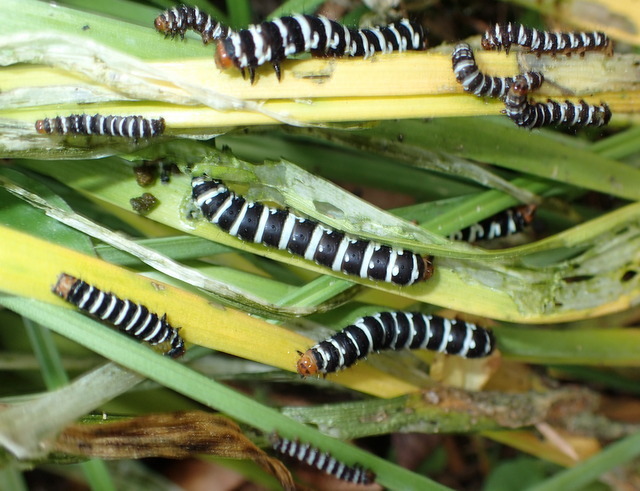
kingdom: Animalia
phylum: Arthropoda
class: Insecta
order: Lepidoptera
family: Noctuidae
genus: Xanthopastis
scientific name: Xanthopastis regnatrix
